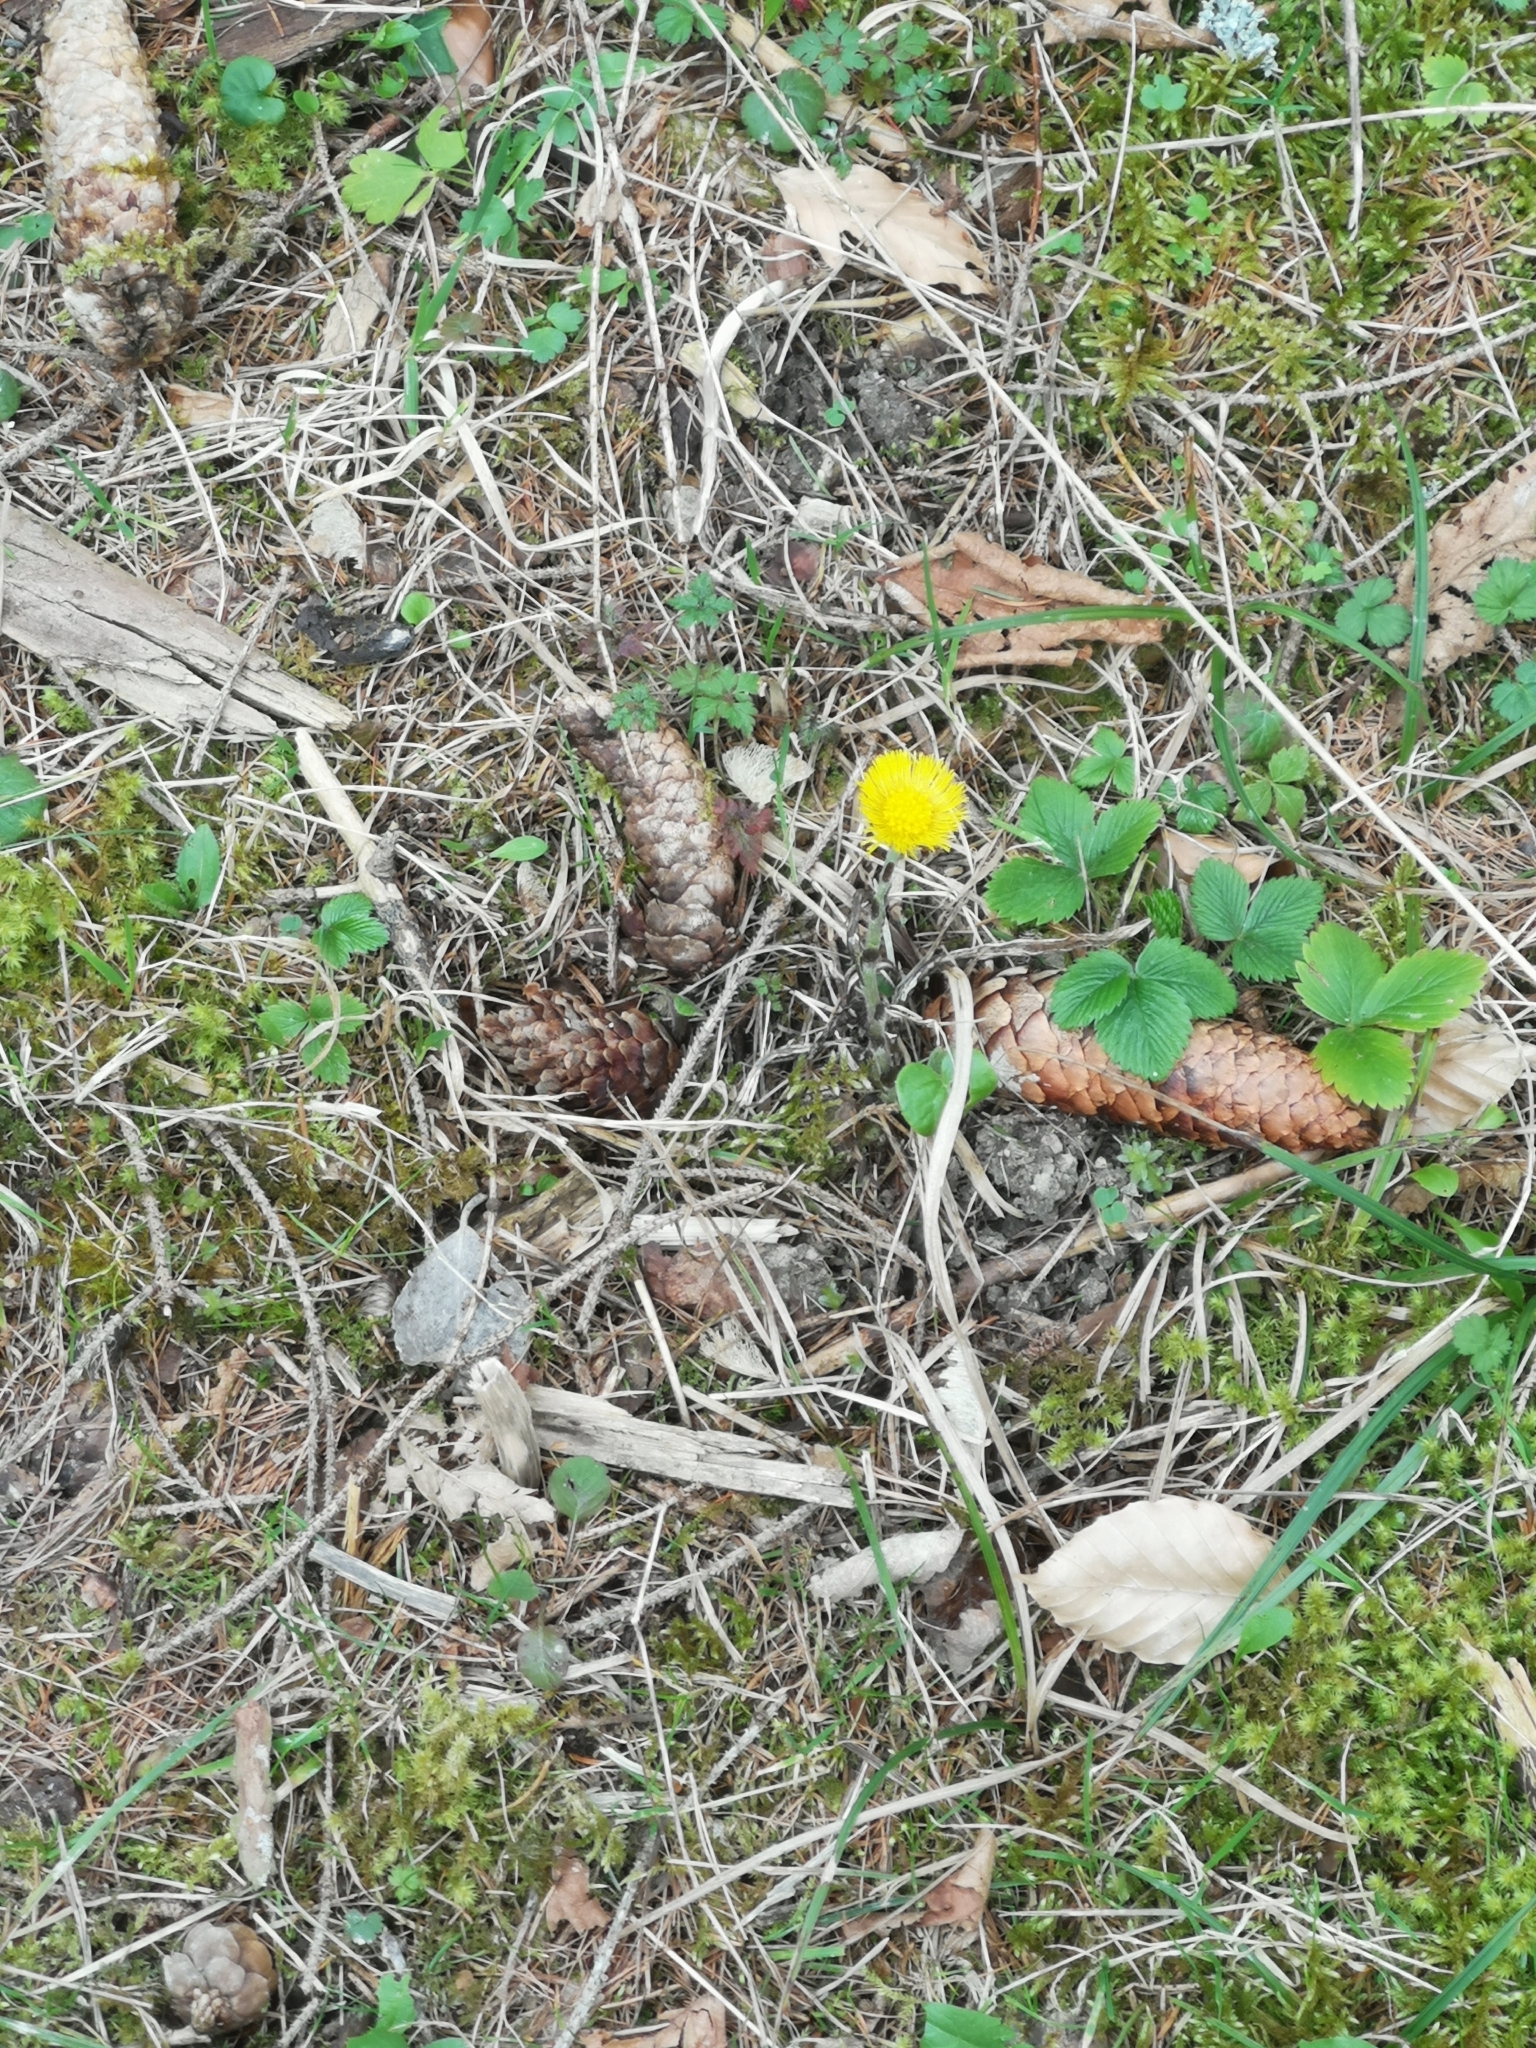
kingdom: Plantae
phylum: Tracheophyta
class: Magnoliopsida
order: Asterales
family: Asteraceae
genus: Tussilago
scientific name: Tussilago farfara
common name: Coltsfoot
